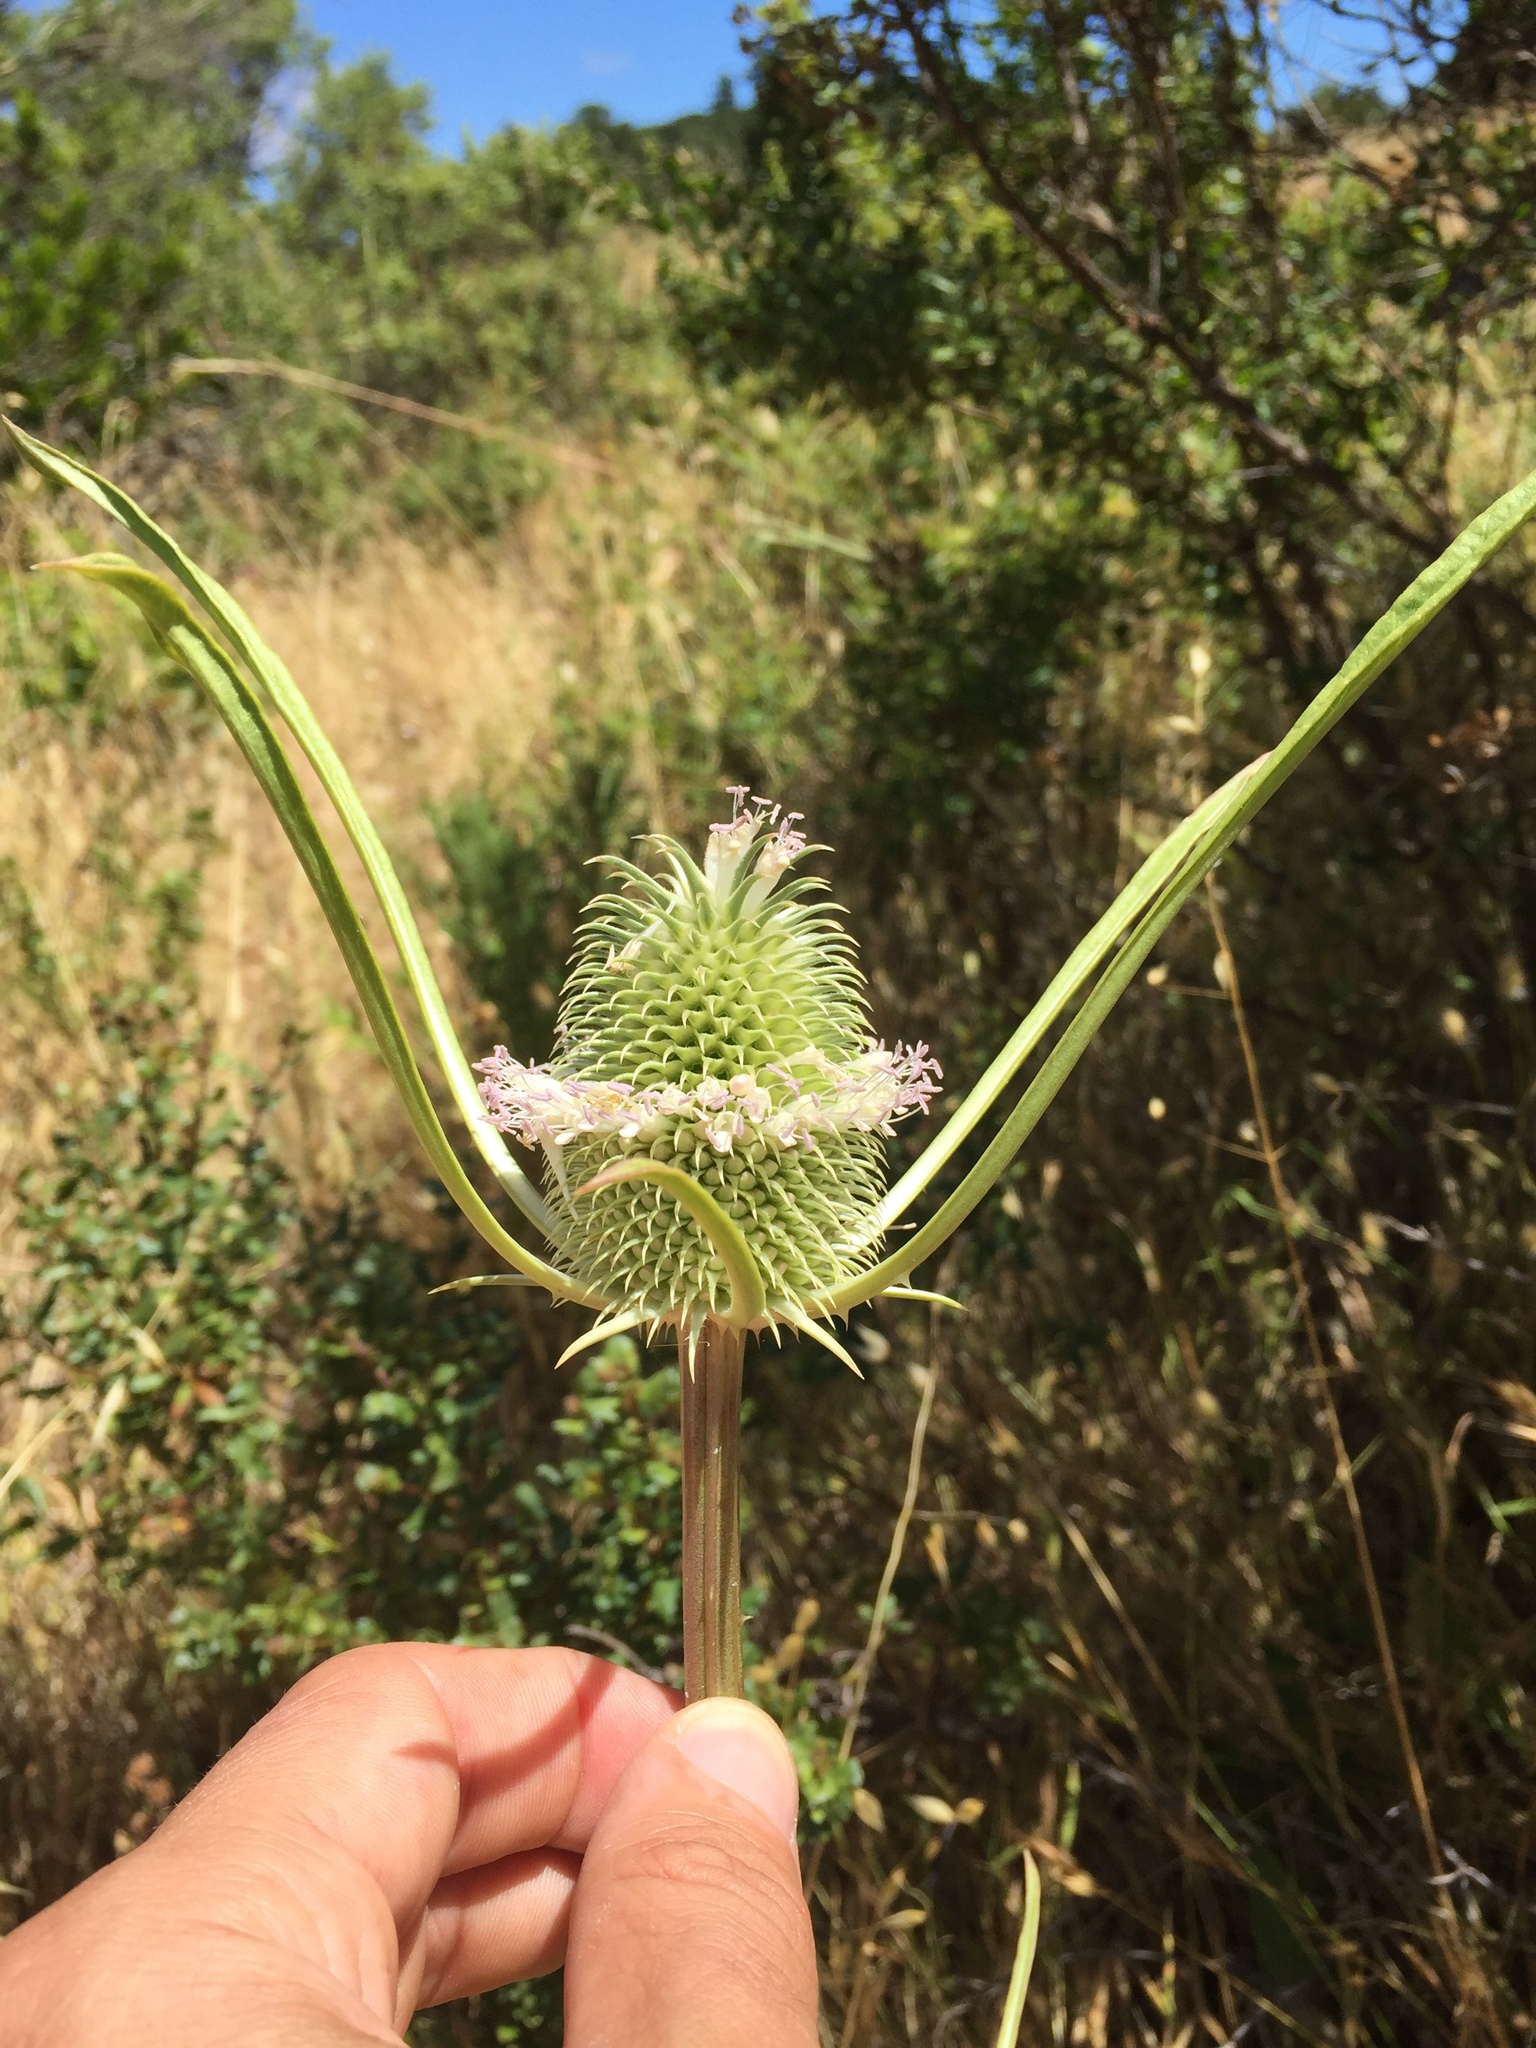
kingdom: Plantae
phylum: Tracheophyta
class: Magnoliopsida
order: Dipsacales
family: Caprifoliaceae
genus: Dipsacus
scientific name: Dipsacus sativus
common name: Fuller's teasel
